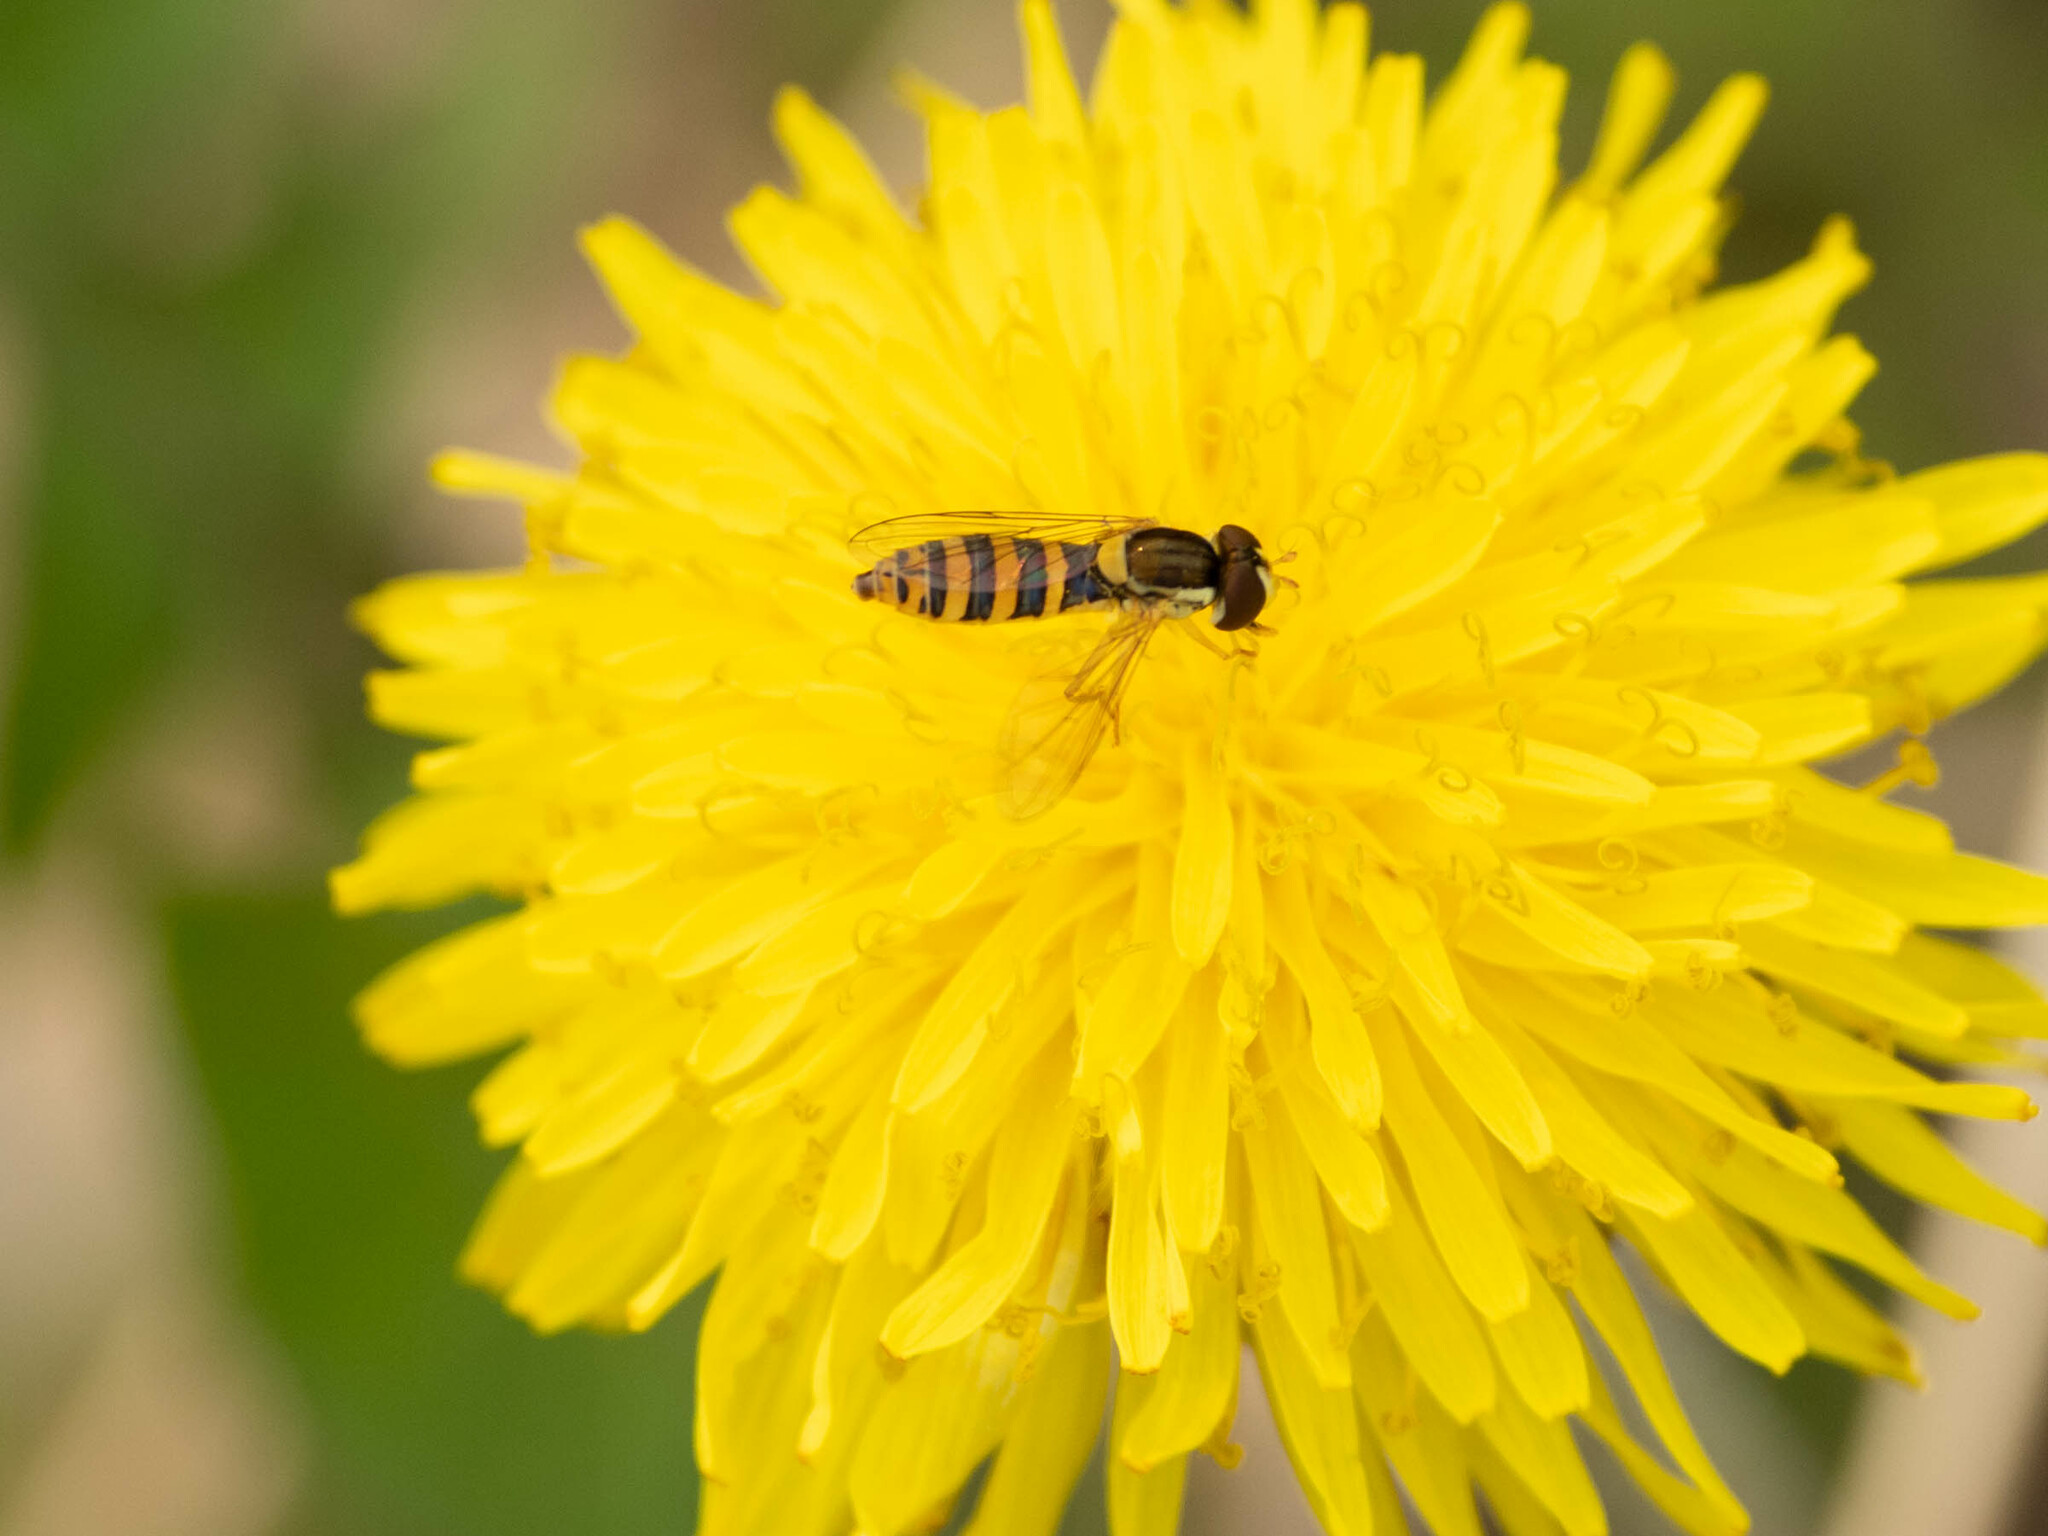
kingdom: Animalia
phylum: Arthropoda
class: Insecta
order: Diptera
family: Syrphidae
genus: Sphaerophoria
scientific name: Sphaerophoria
